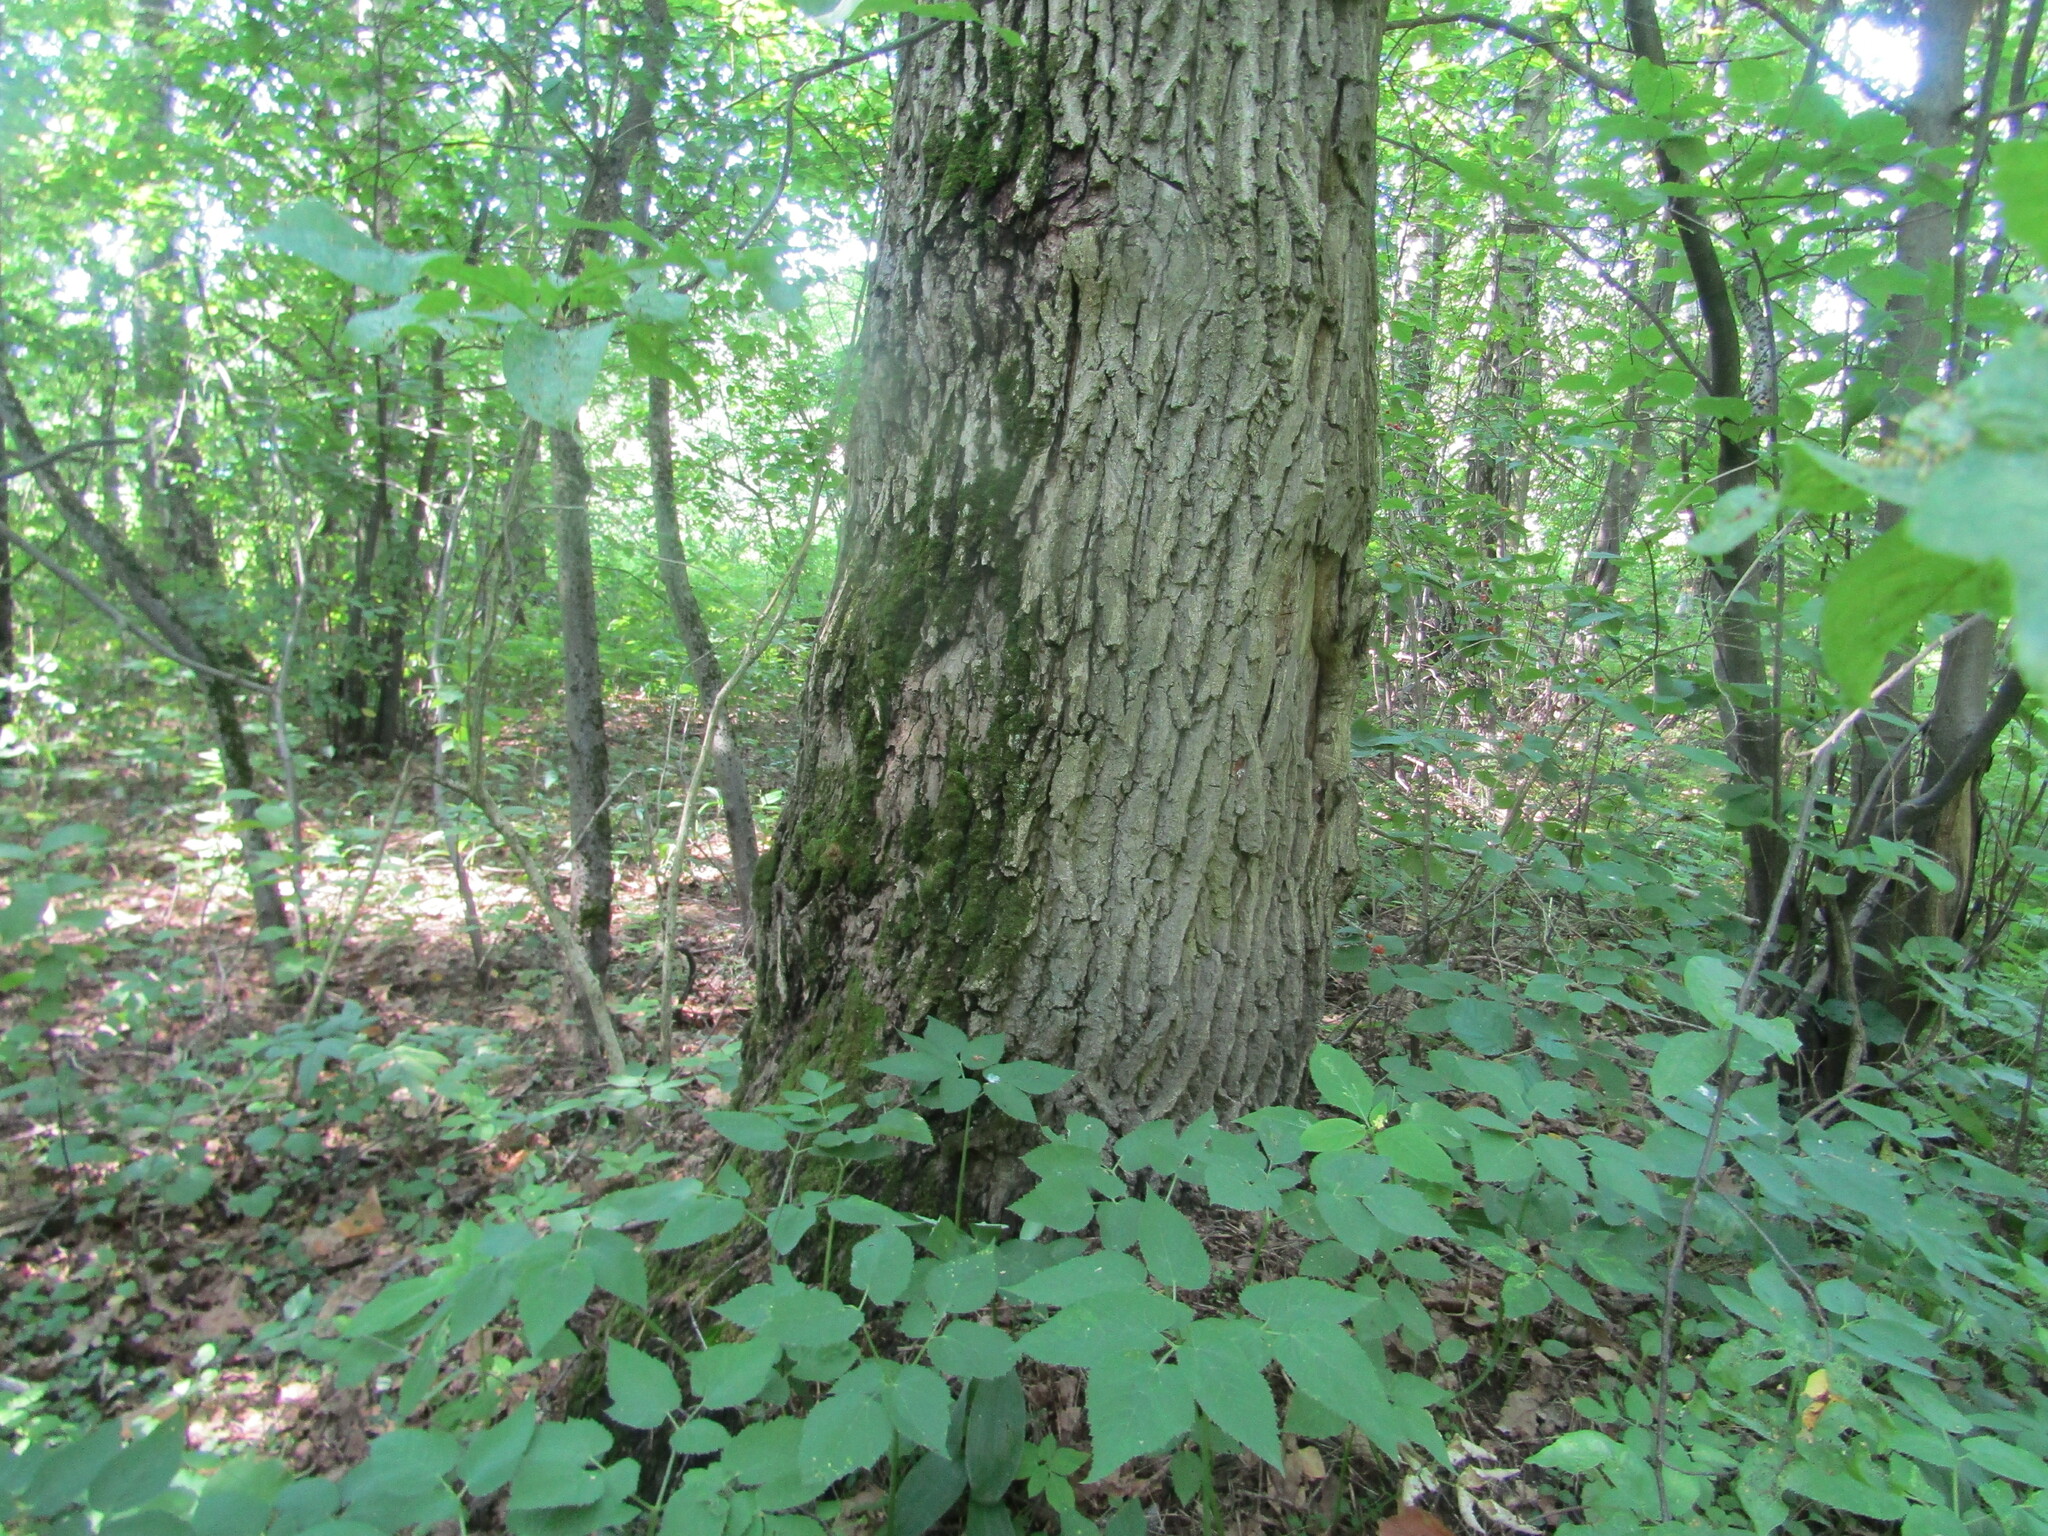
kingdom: Plantae
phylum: Tracheophyta
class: Magnoliopsida
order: Fagales
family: Fagaceae
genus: Quercus
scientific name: Quercus robur
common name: Pedunculate oak
